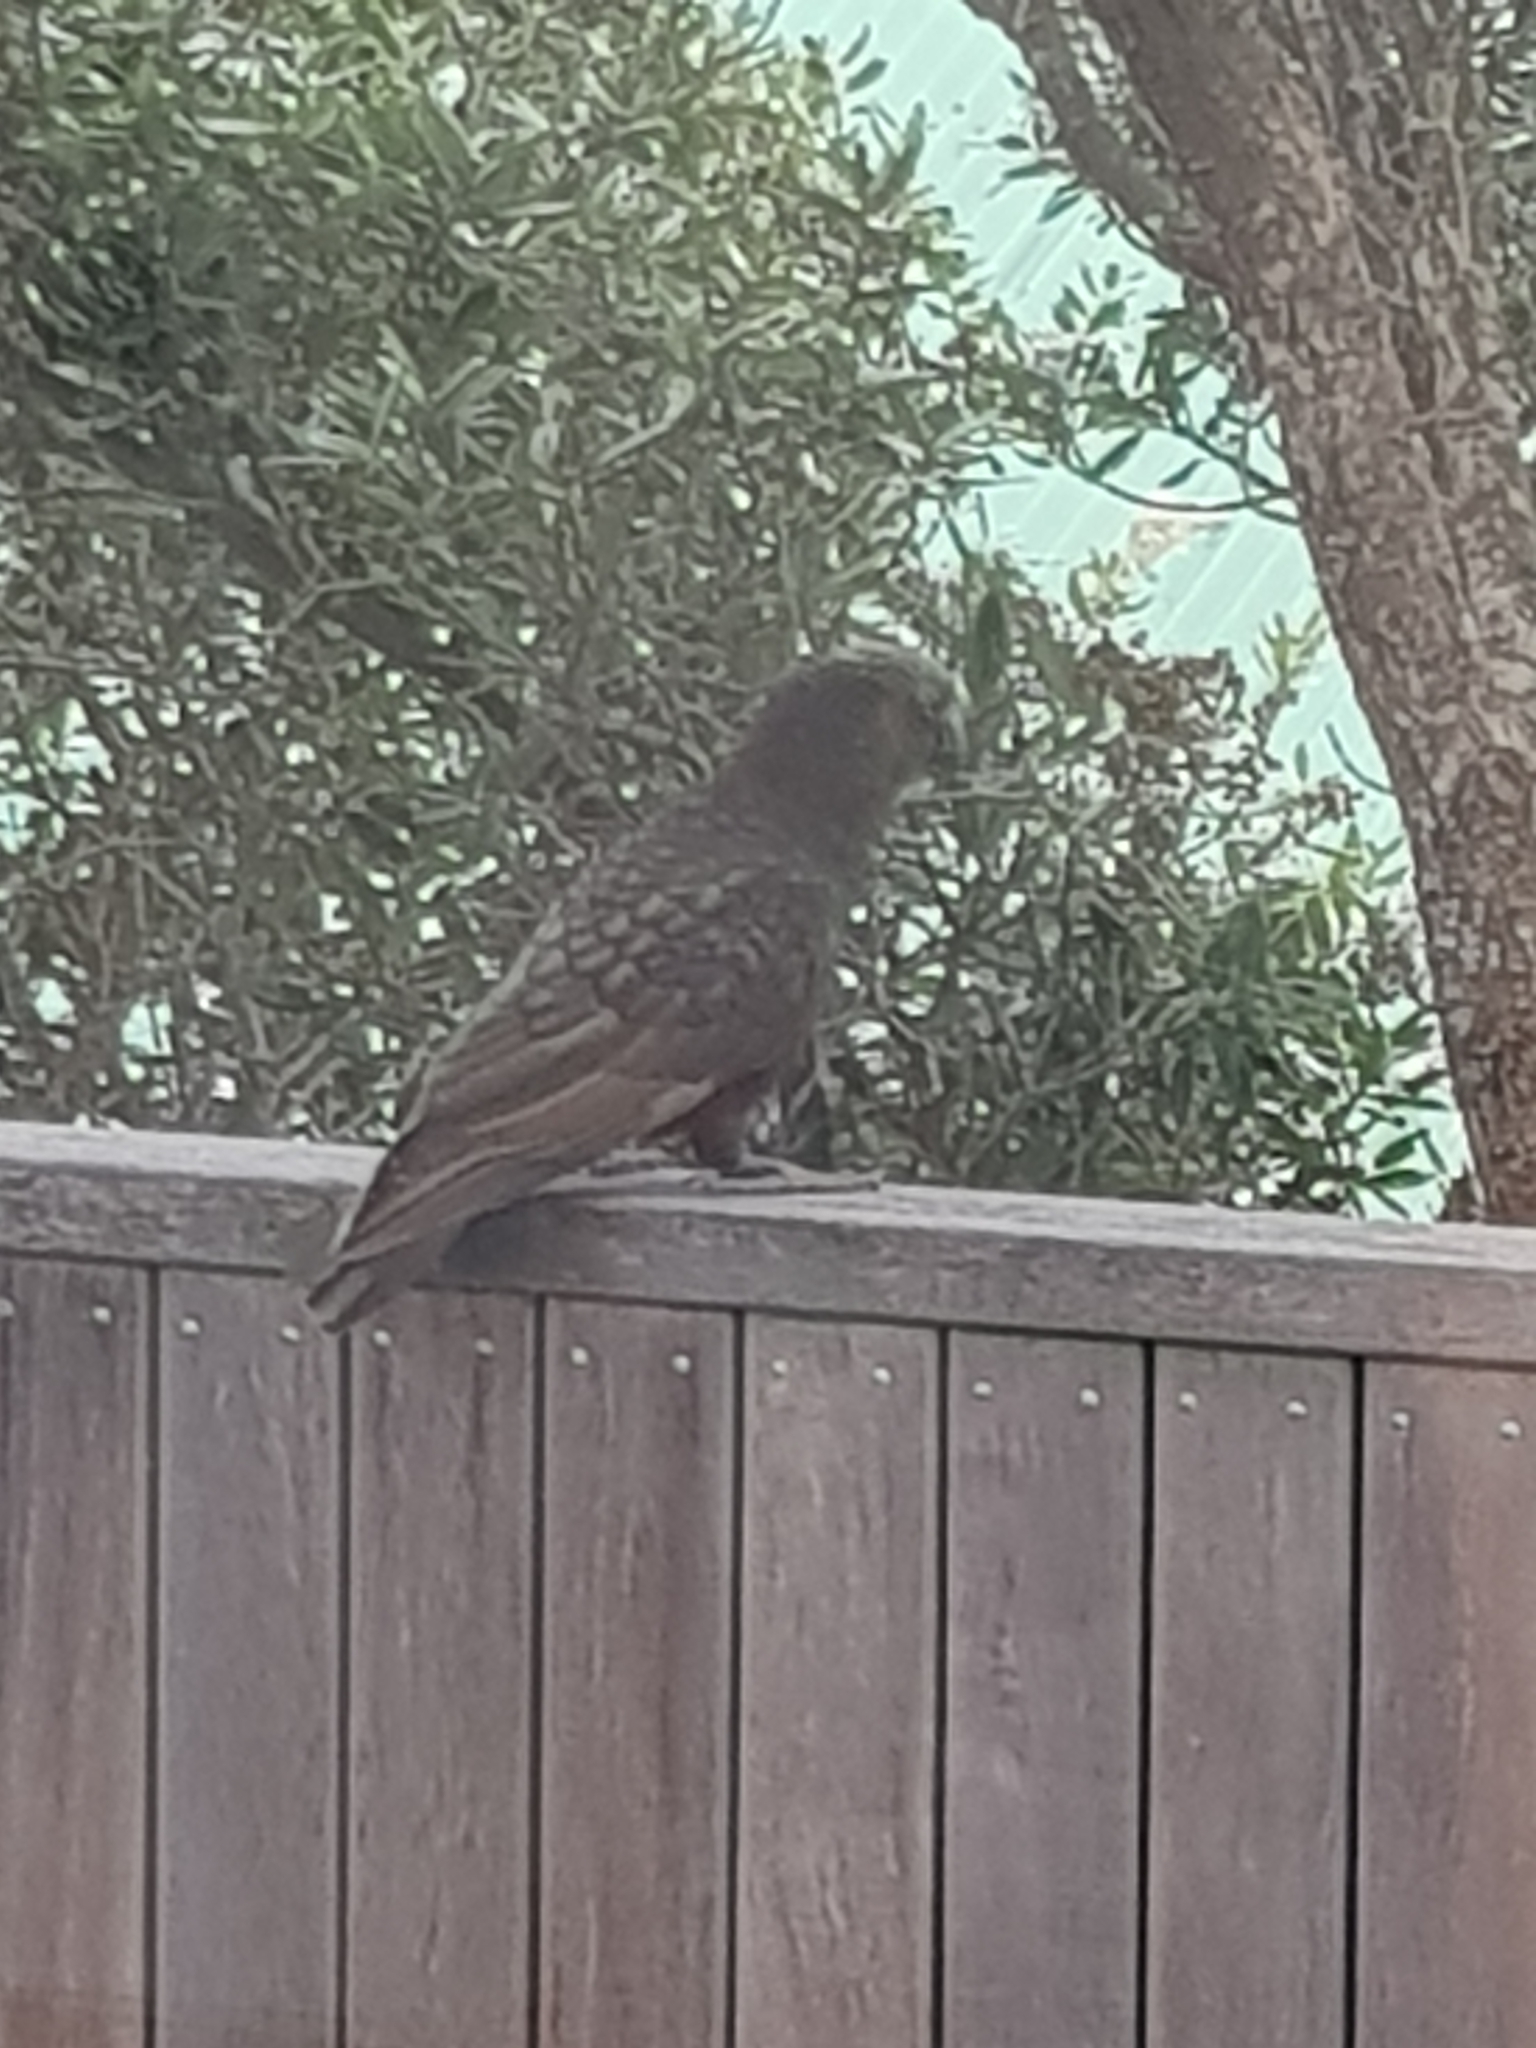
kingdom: Animalia
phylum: Chordata
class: Aves
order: Psittaciformes
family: Psittacidae
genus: Nestor
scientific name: Nestor meridionalis
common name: New zealand kaka
